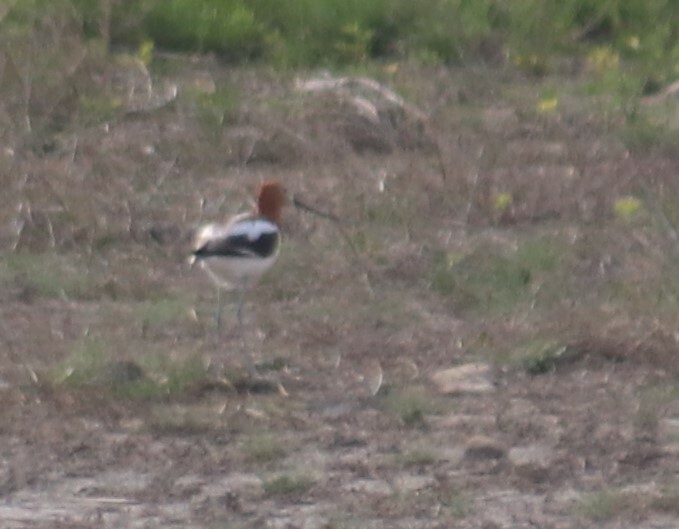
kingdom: Animalia
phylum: Chordata
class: Aves
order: Charadriiformes
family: Recurvirostridae
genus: Recurvirostra
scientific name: Recurvirostra americana
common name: American avocet
